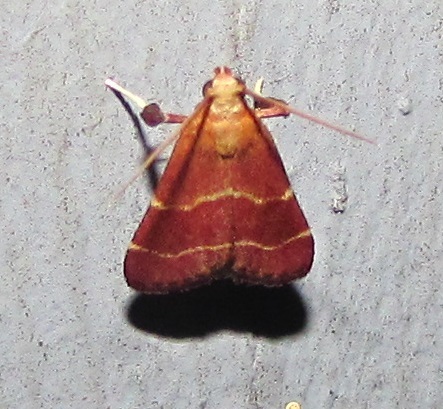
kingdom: Animalia
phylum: Arthropoda
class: Insecta
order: Lepidoptera
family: Pyralidae
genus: Arta
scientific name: Arta statalis
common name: Posturing arta moth
